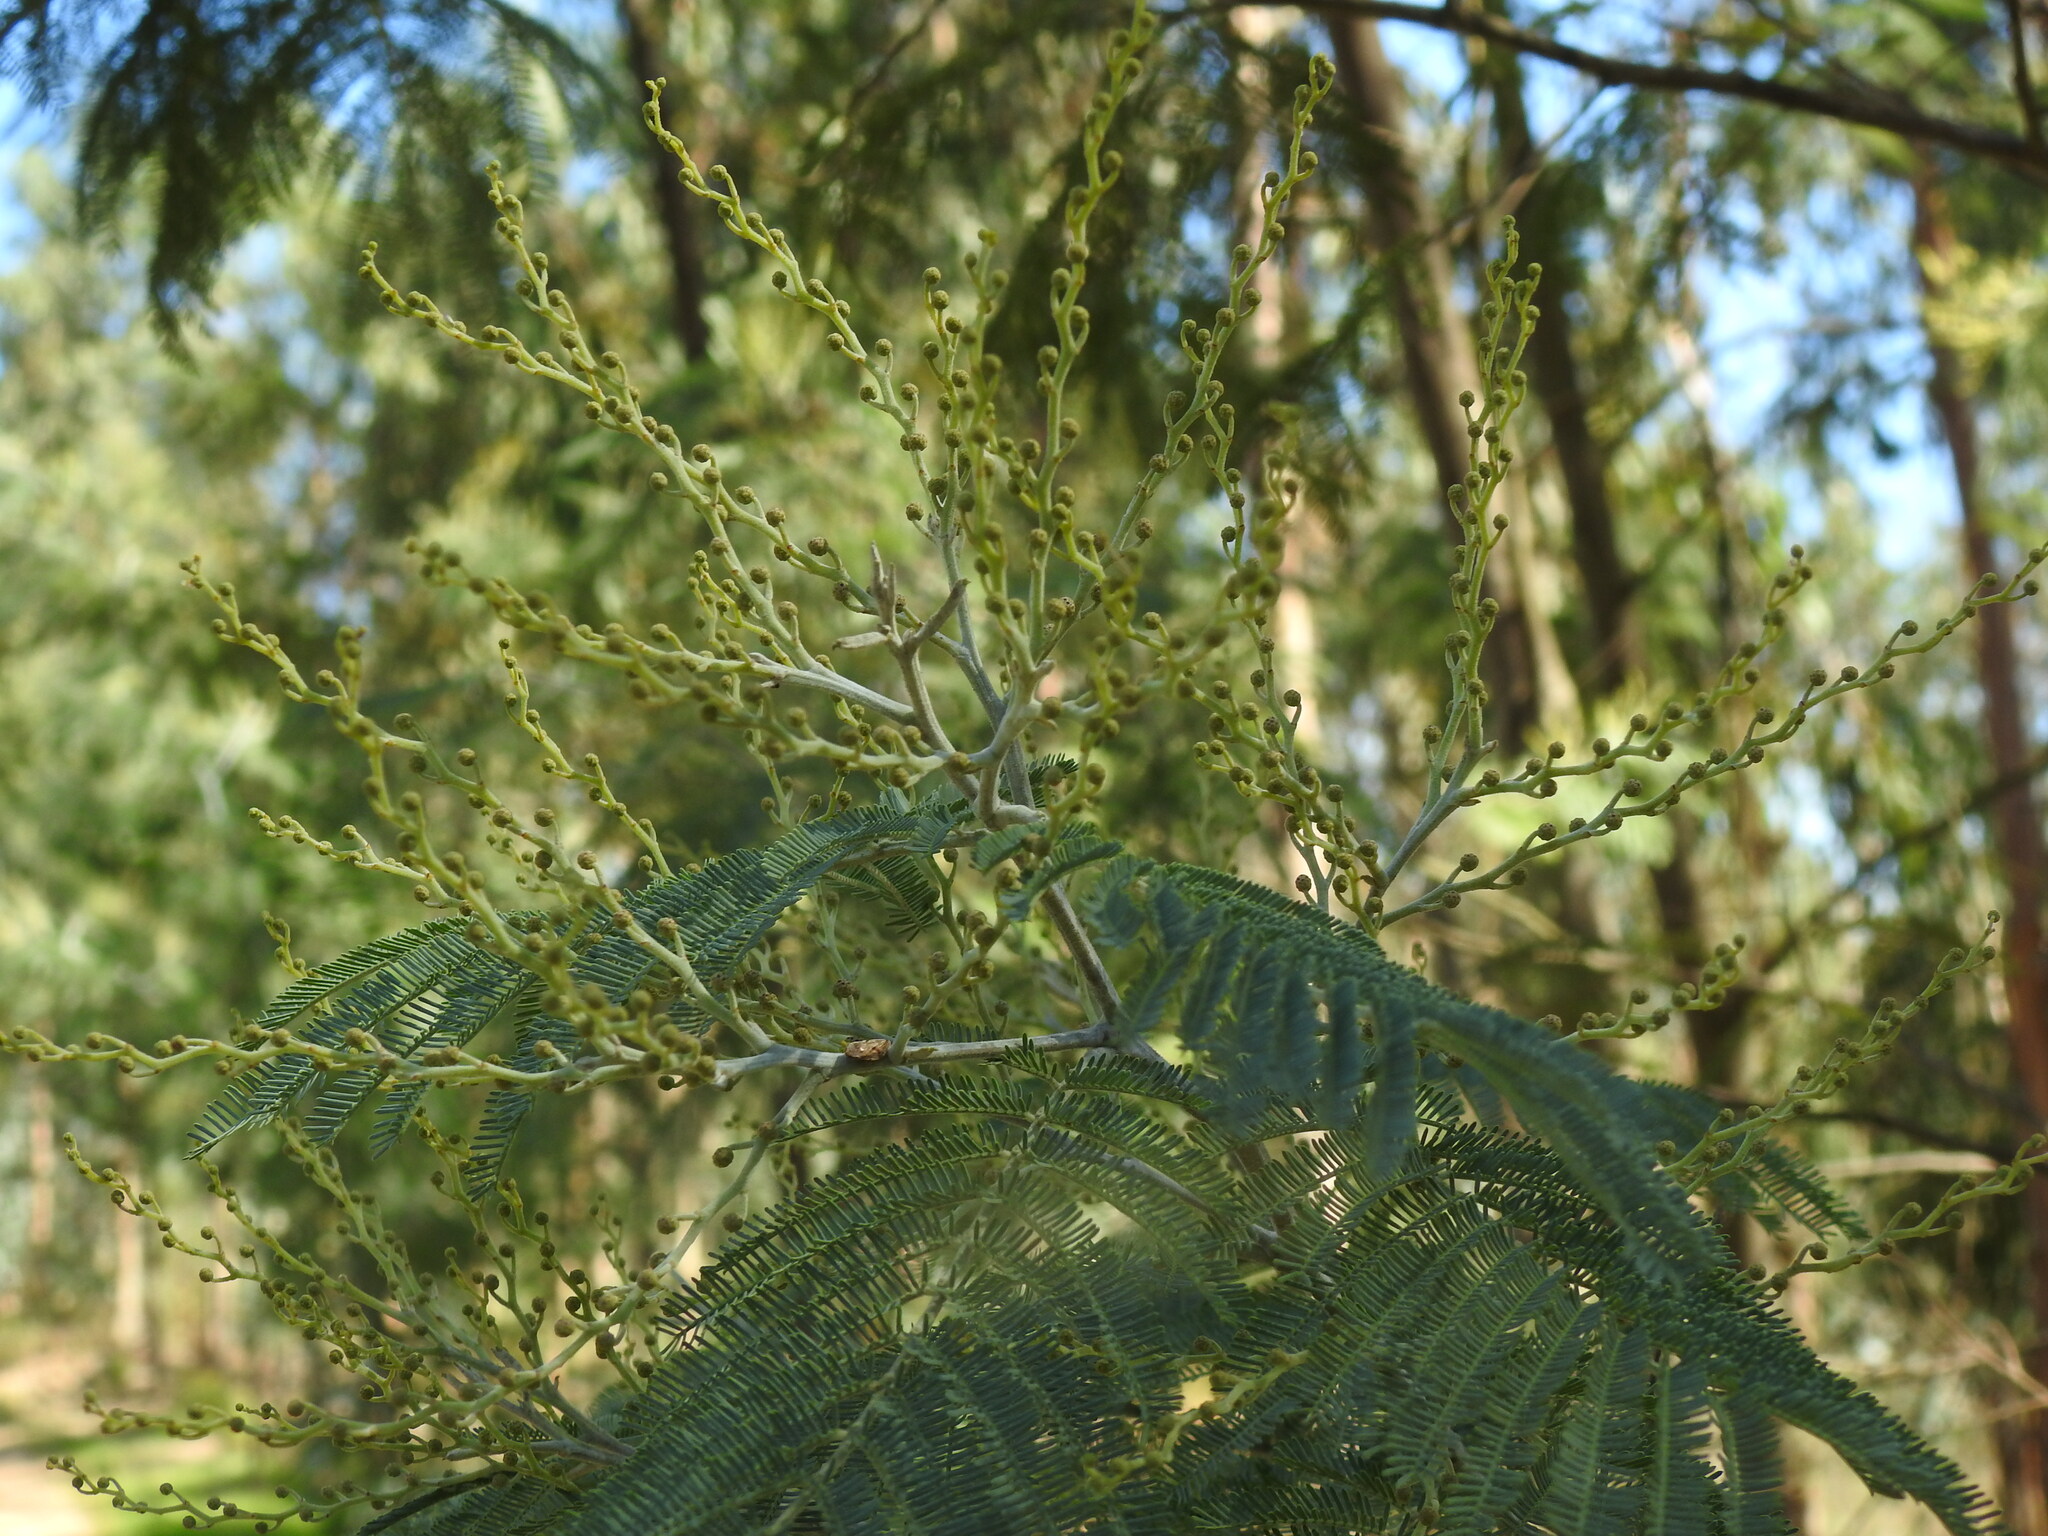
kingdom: Plantae
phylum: Tracheophyta
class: Magnoliopsida
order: Fabales
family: Fabaceae
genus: Acacia
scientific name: Acacia dealbata
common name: Silver wattle
